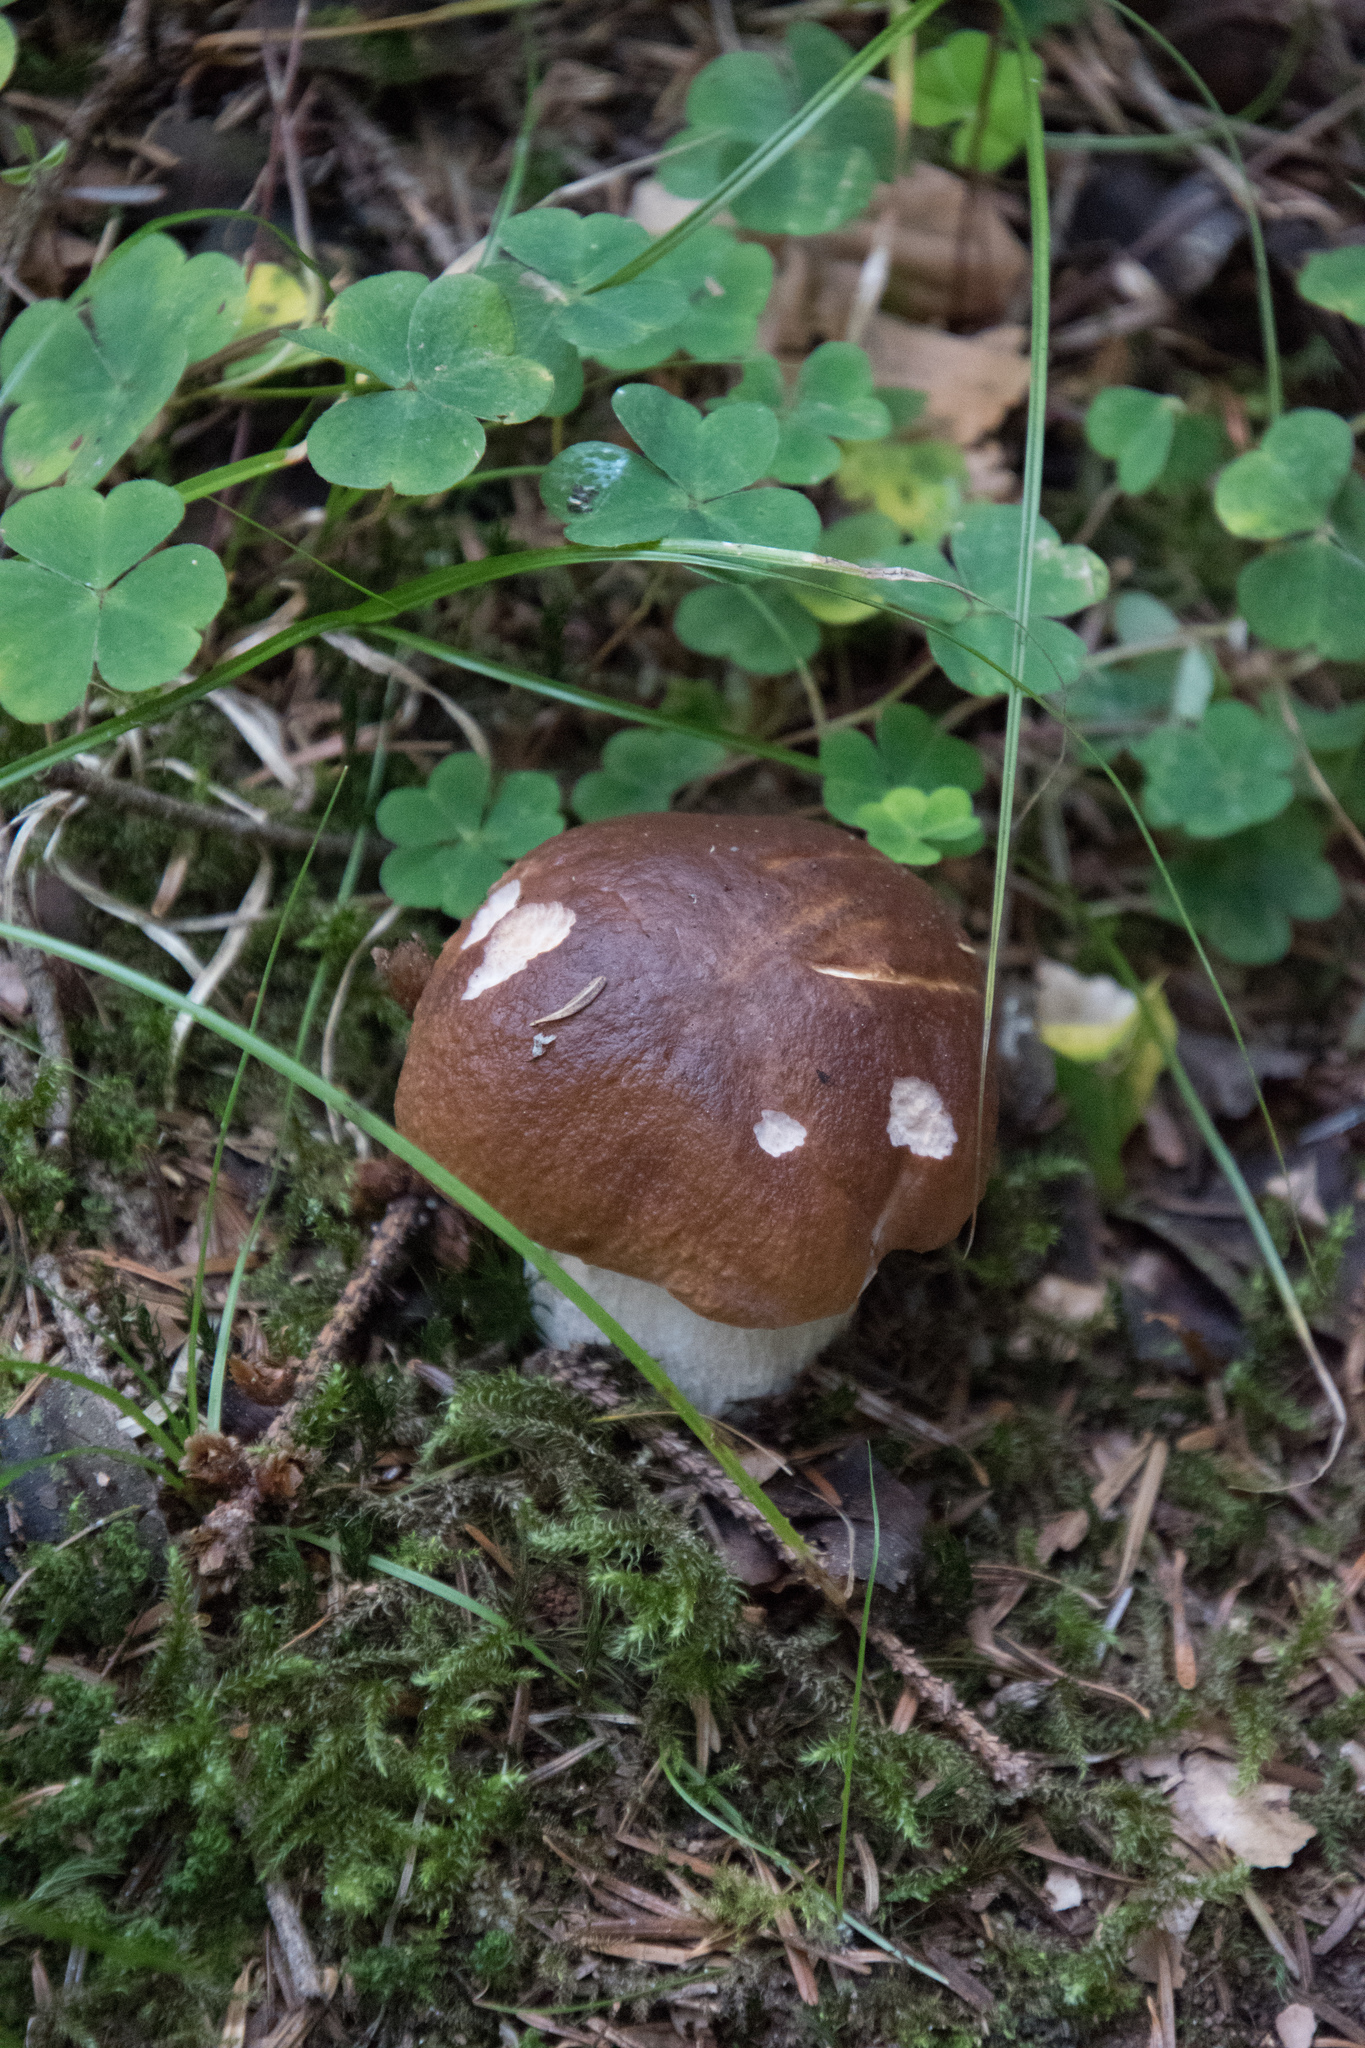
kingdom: Fungi
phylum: Basidiomycota
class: Agaricomycetes
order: Boletales
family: Boletaceae
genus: Boletus
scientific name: Boletus edulis
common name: Cep
